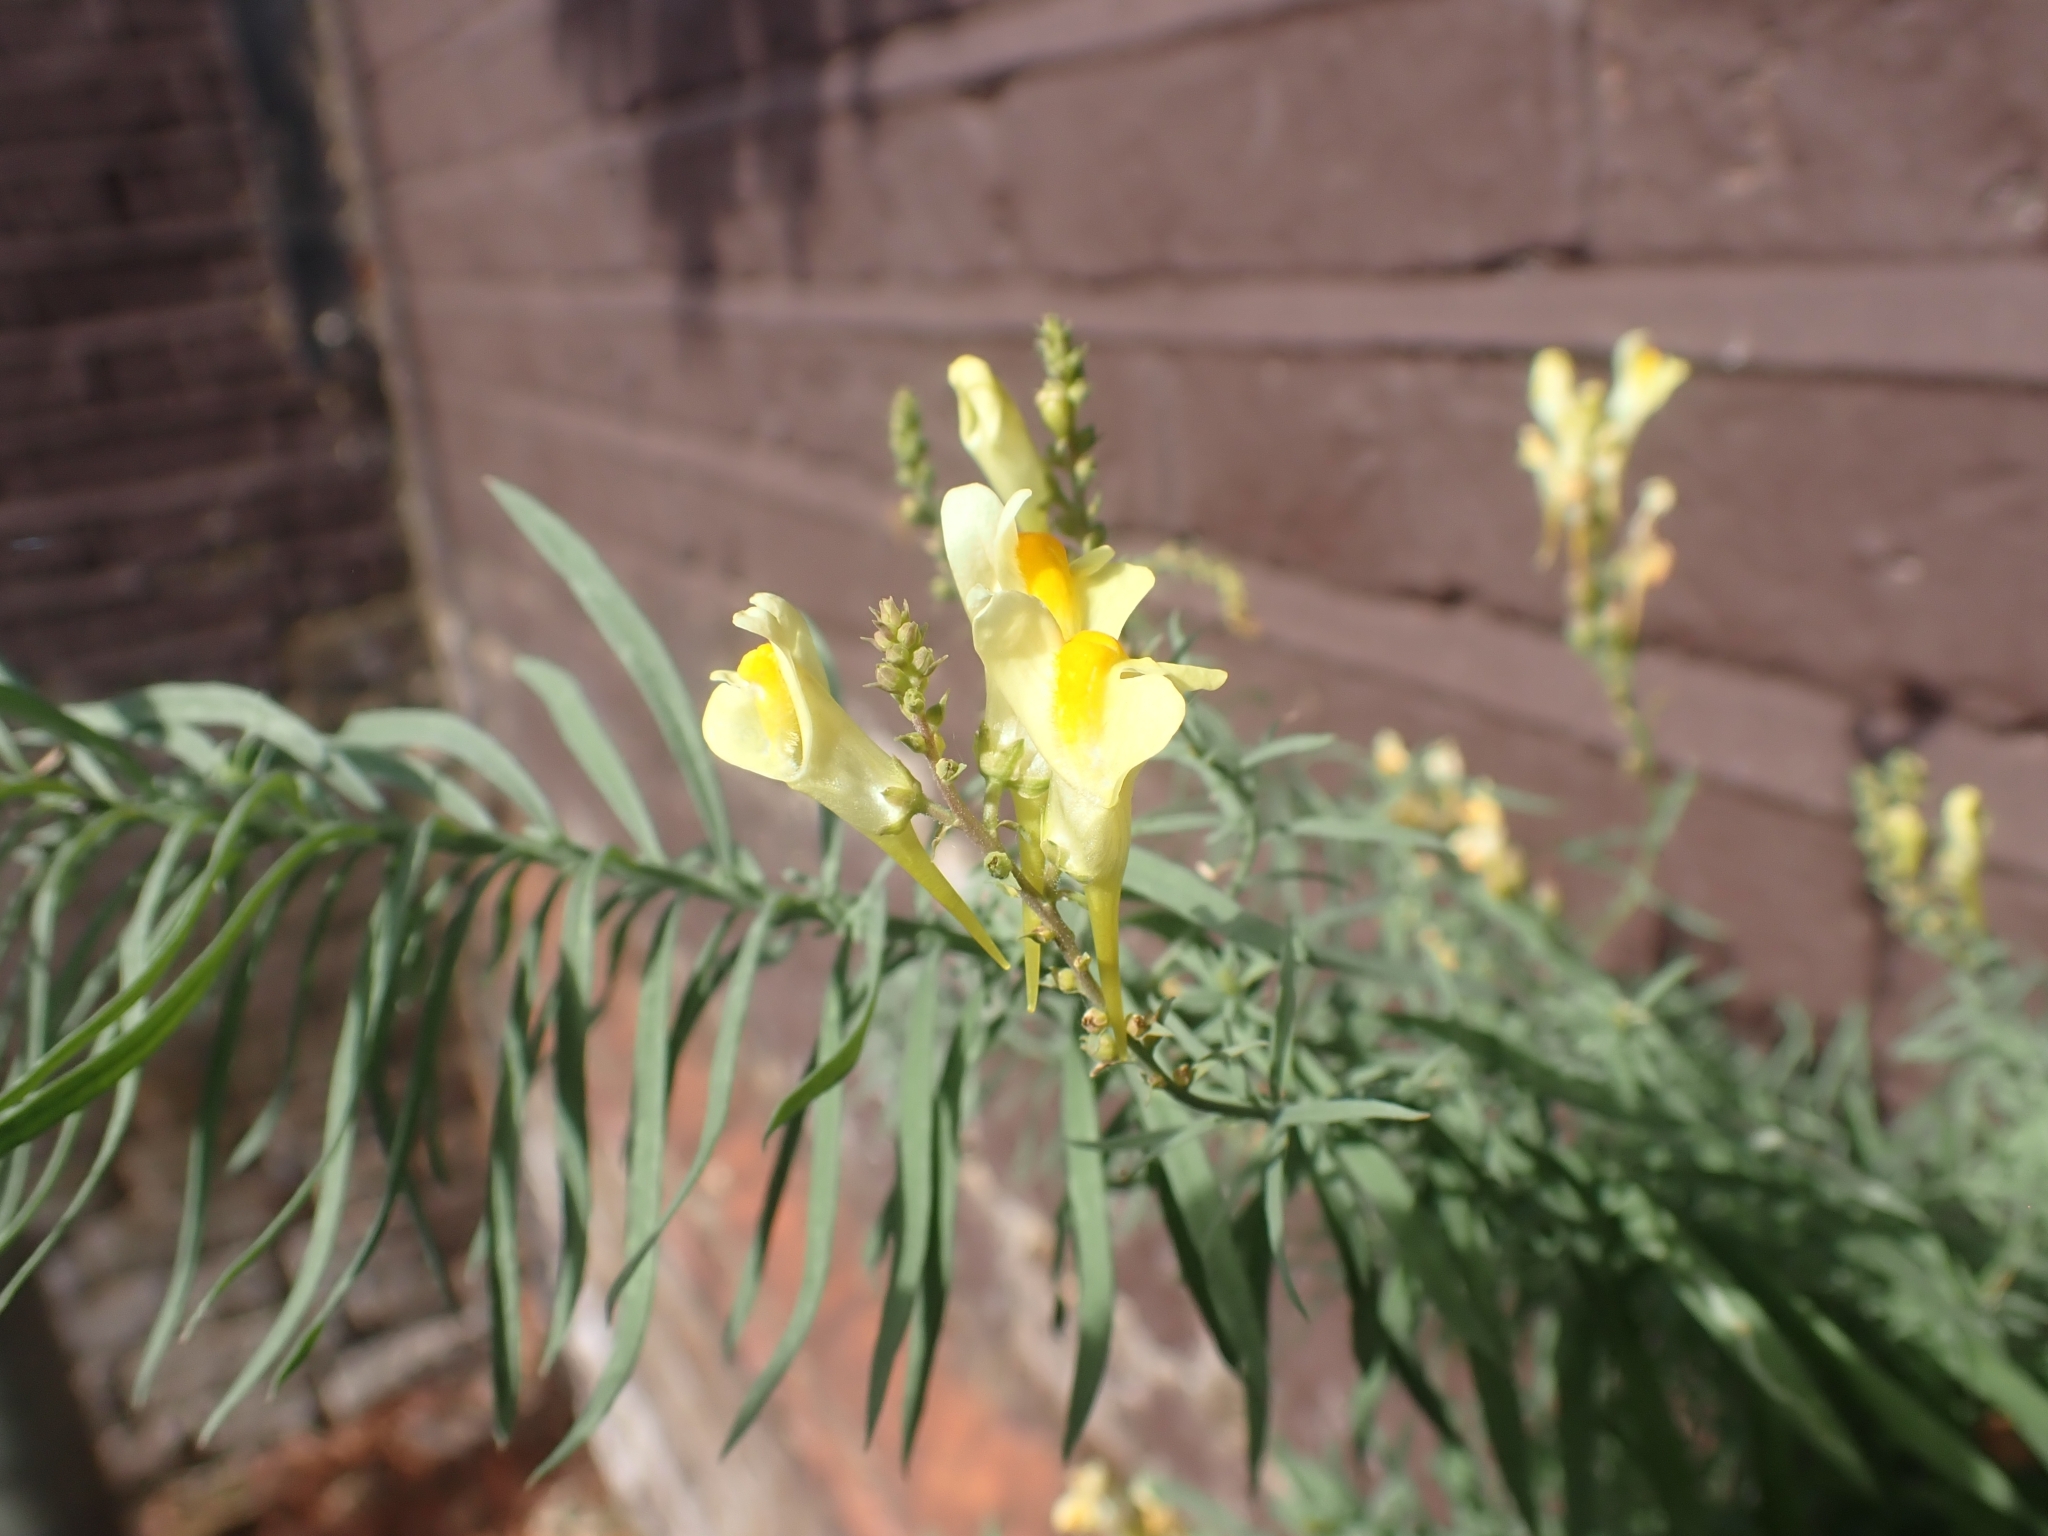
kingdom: Plantae
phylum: Tracheophyta
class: Magnoliopsida
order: Lamiales
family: Plantaginaceae
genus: Linaria
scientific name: Linaria vulgaris
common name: Butter and eggs
